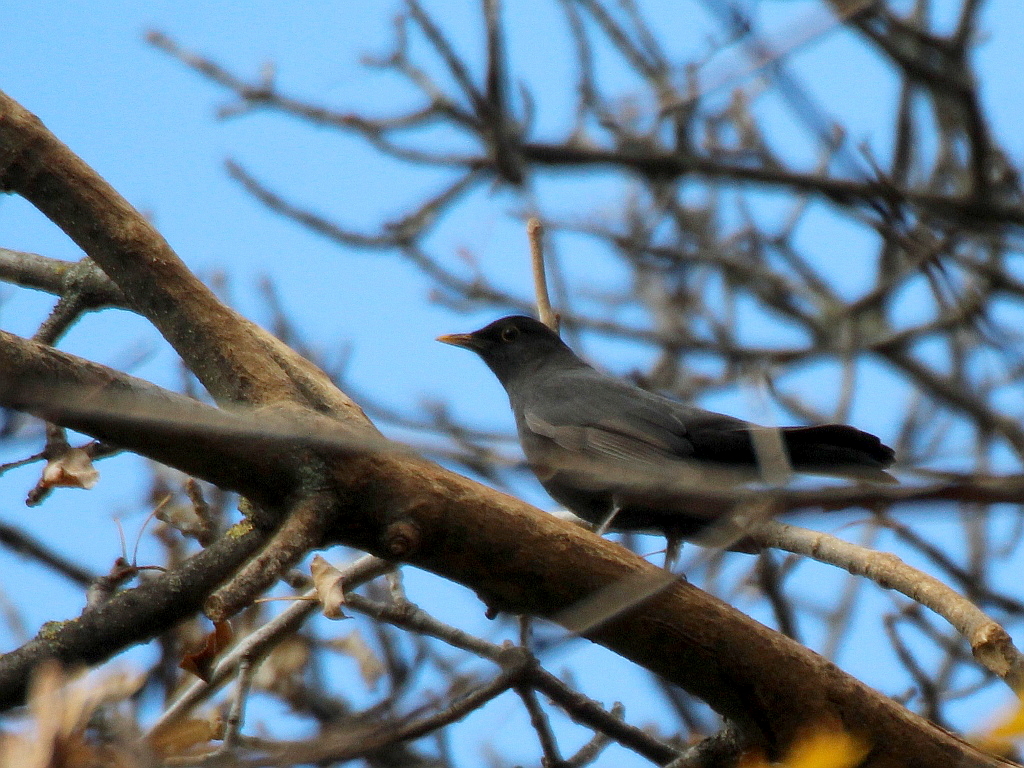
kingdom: Animalia
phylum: Chordata
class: Aves
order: Passeriformes
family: Turdidae
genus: Turdus
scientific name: Turdus merula
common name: Common blackbird
